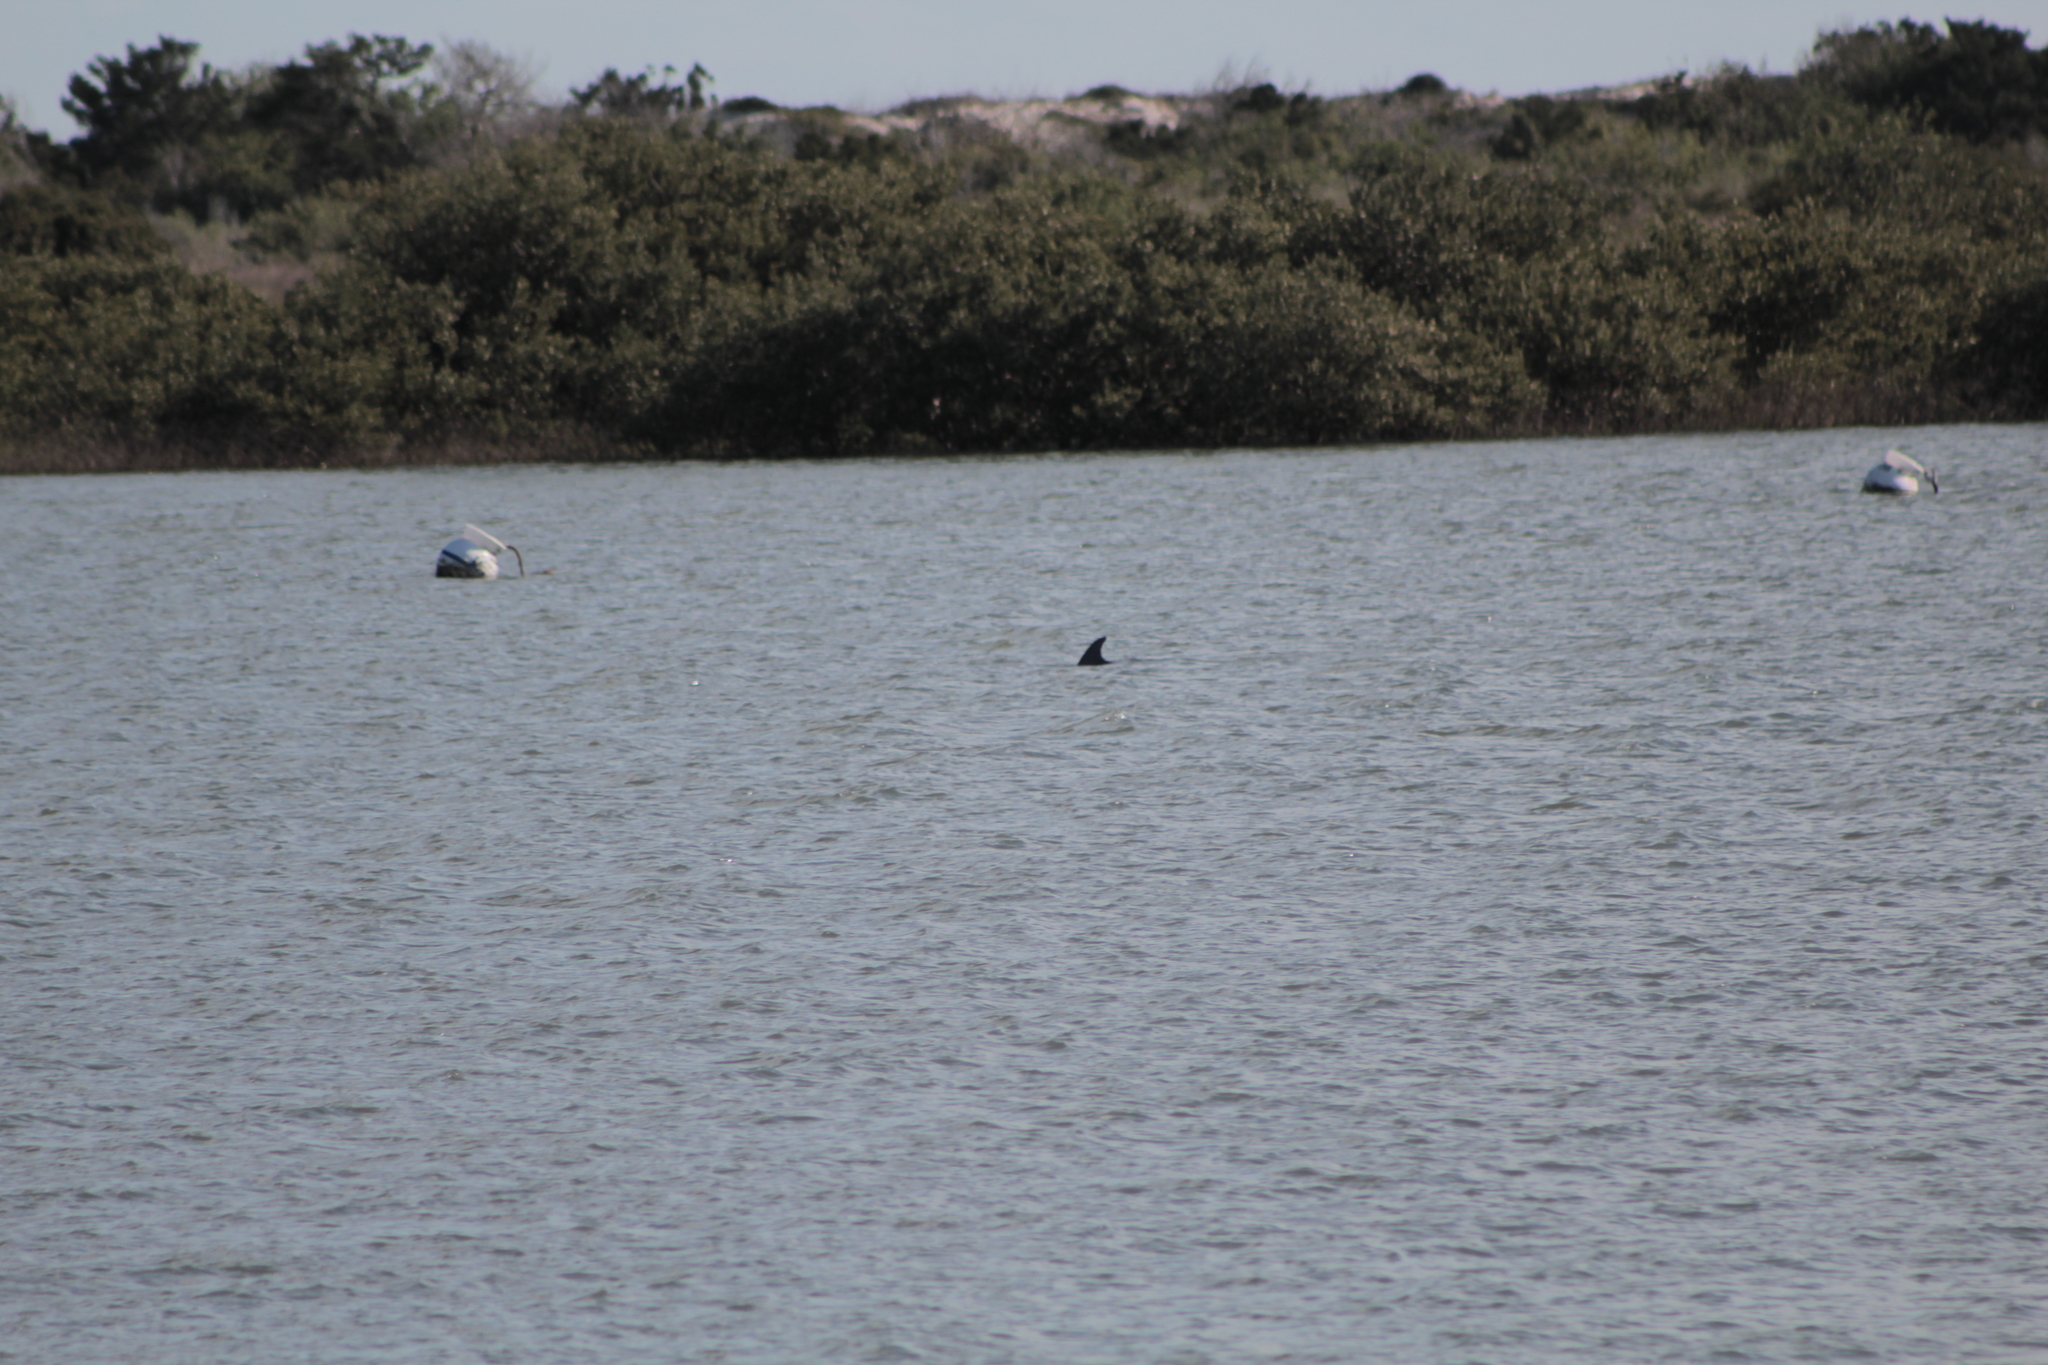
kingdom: Animalia
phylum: Chordata
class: Mammalia
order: Cetacea
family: Delphinidae
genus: Tursiops
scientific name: Tursiops truncatus
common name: Bottlenose dolphin
